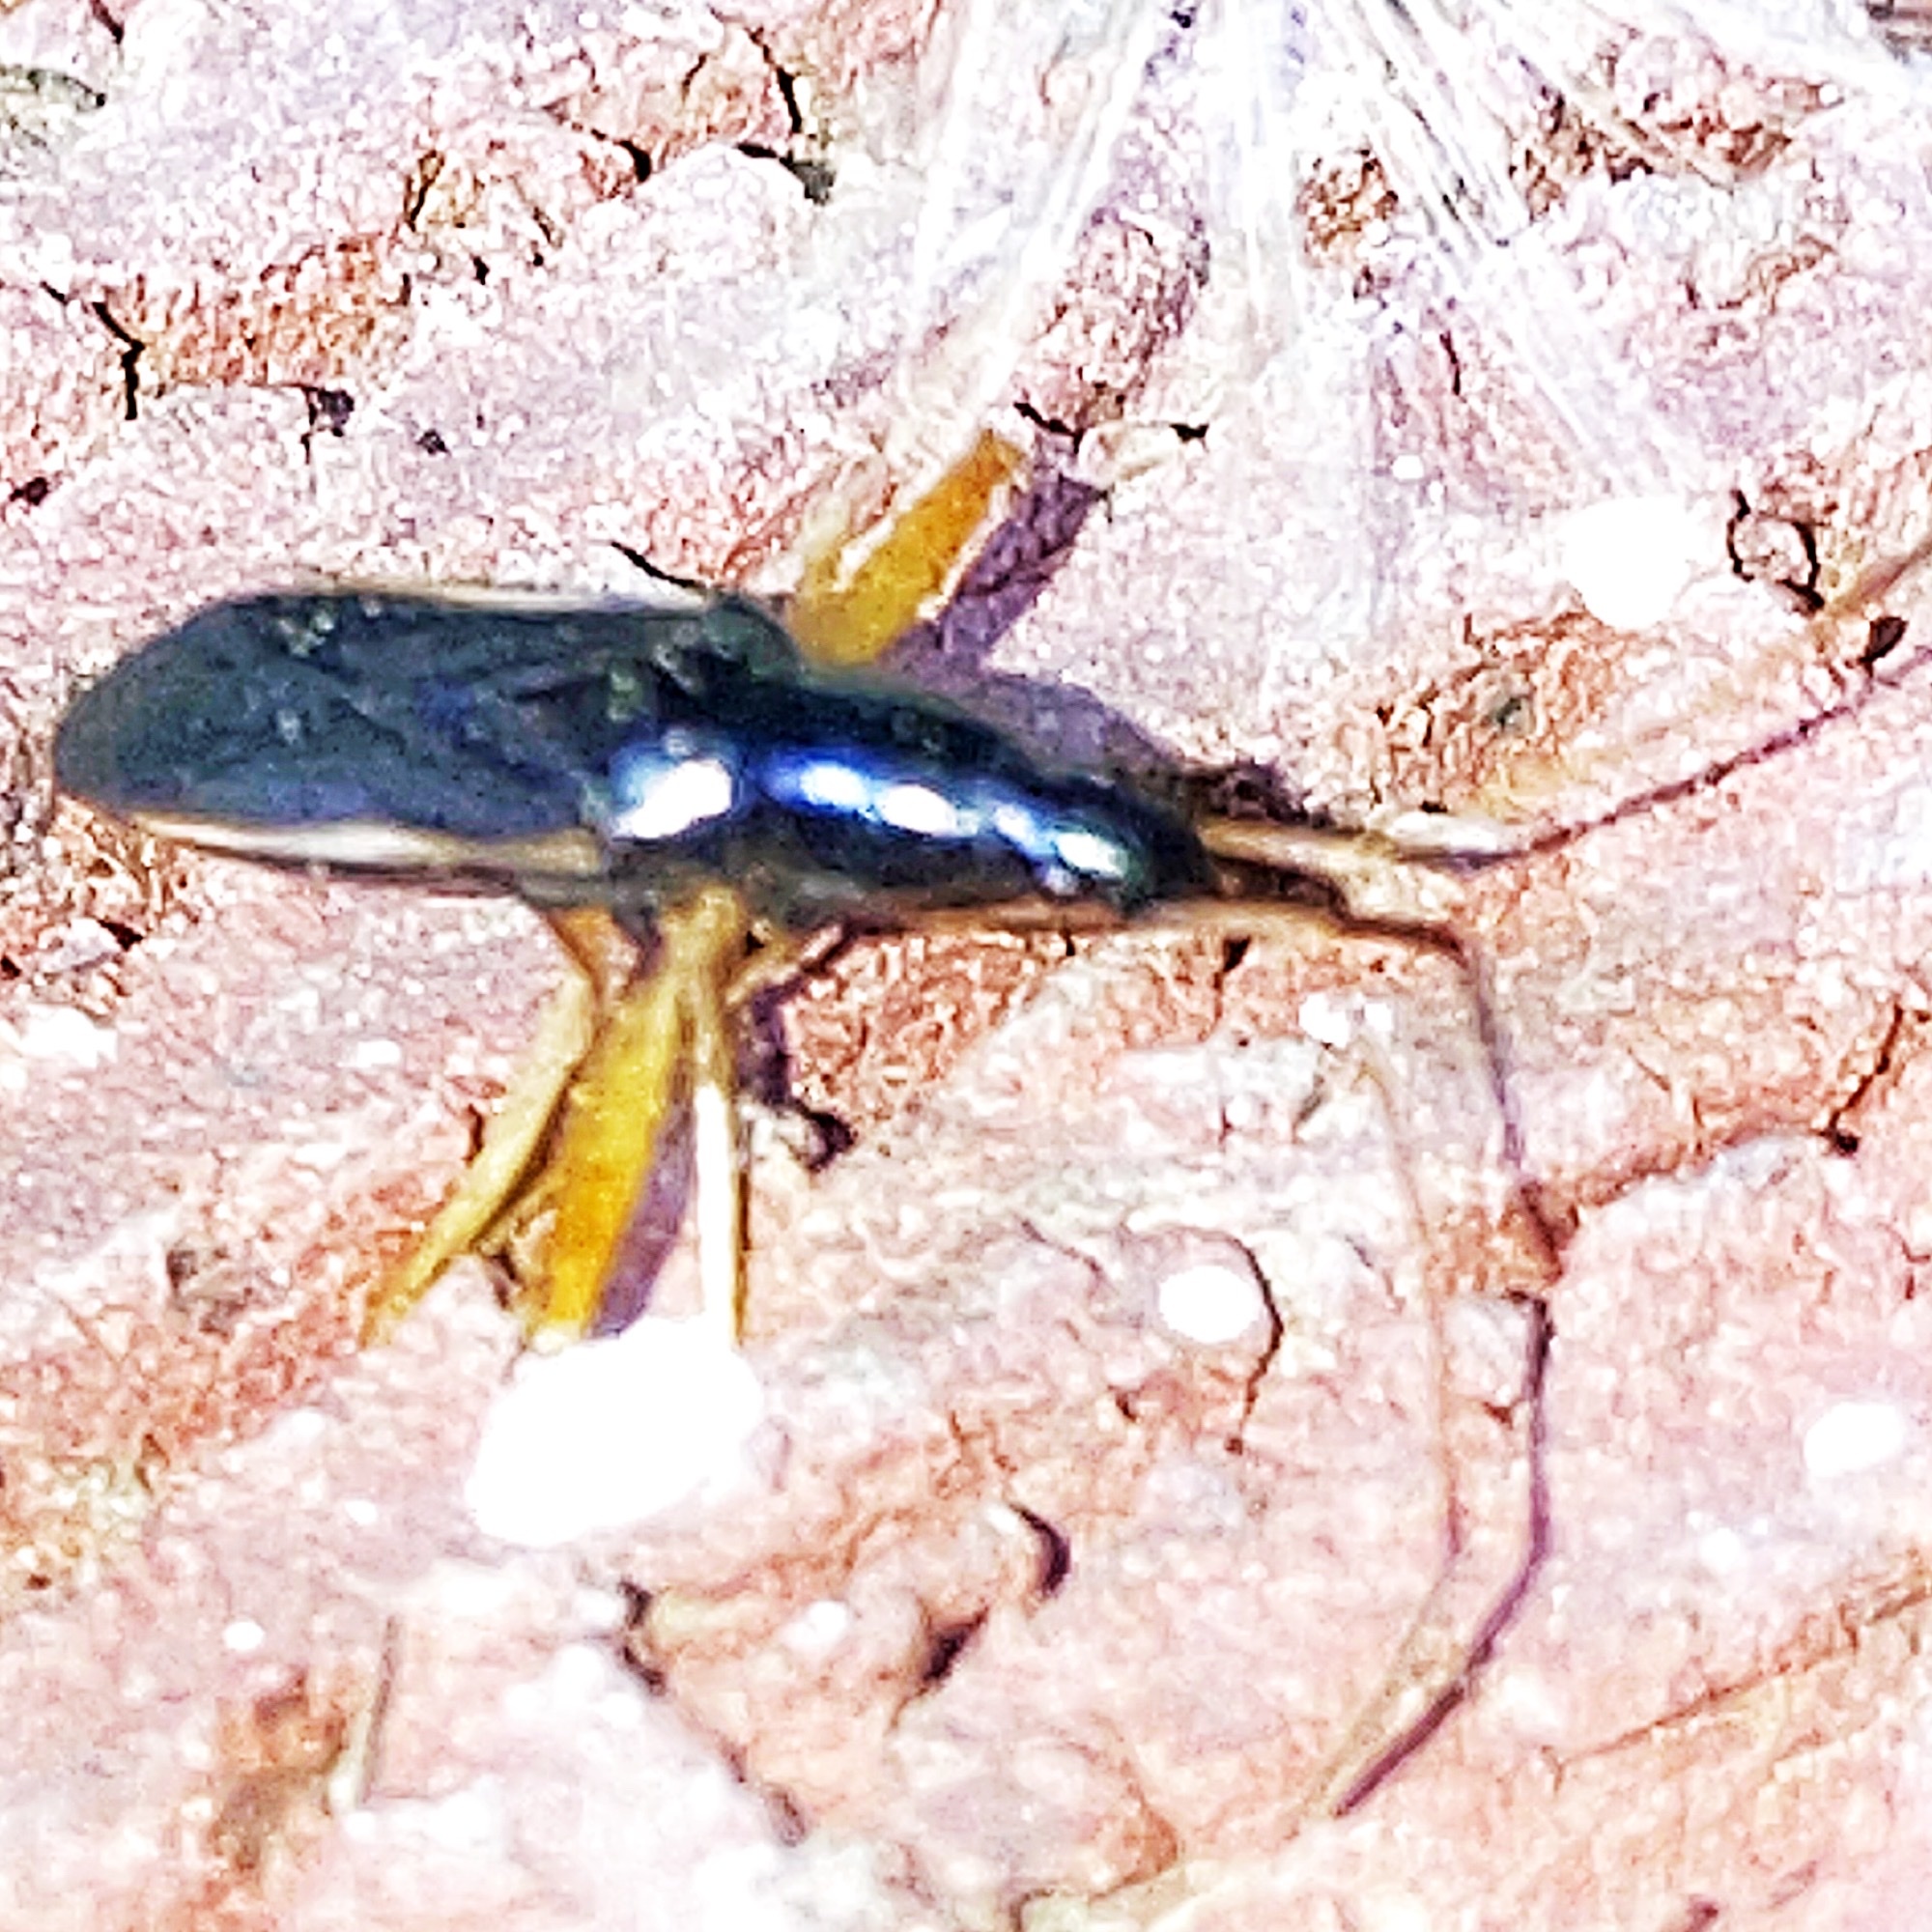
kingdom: Animalia
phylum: Arthropoda
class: Insecta
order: Hemiptera
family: Rhyparochromidae
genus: Cnemodus
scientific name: Cnemodus mavortius
